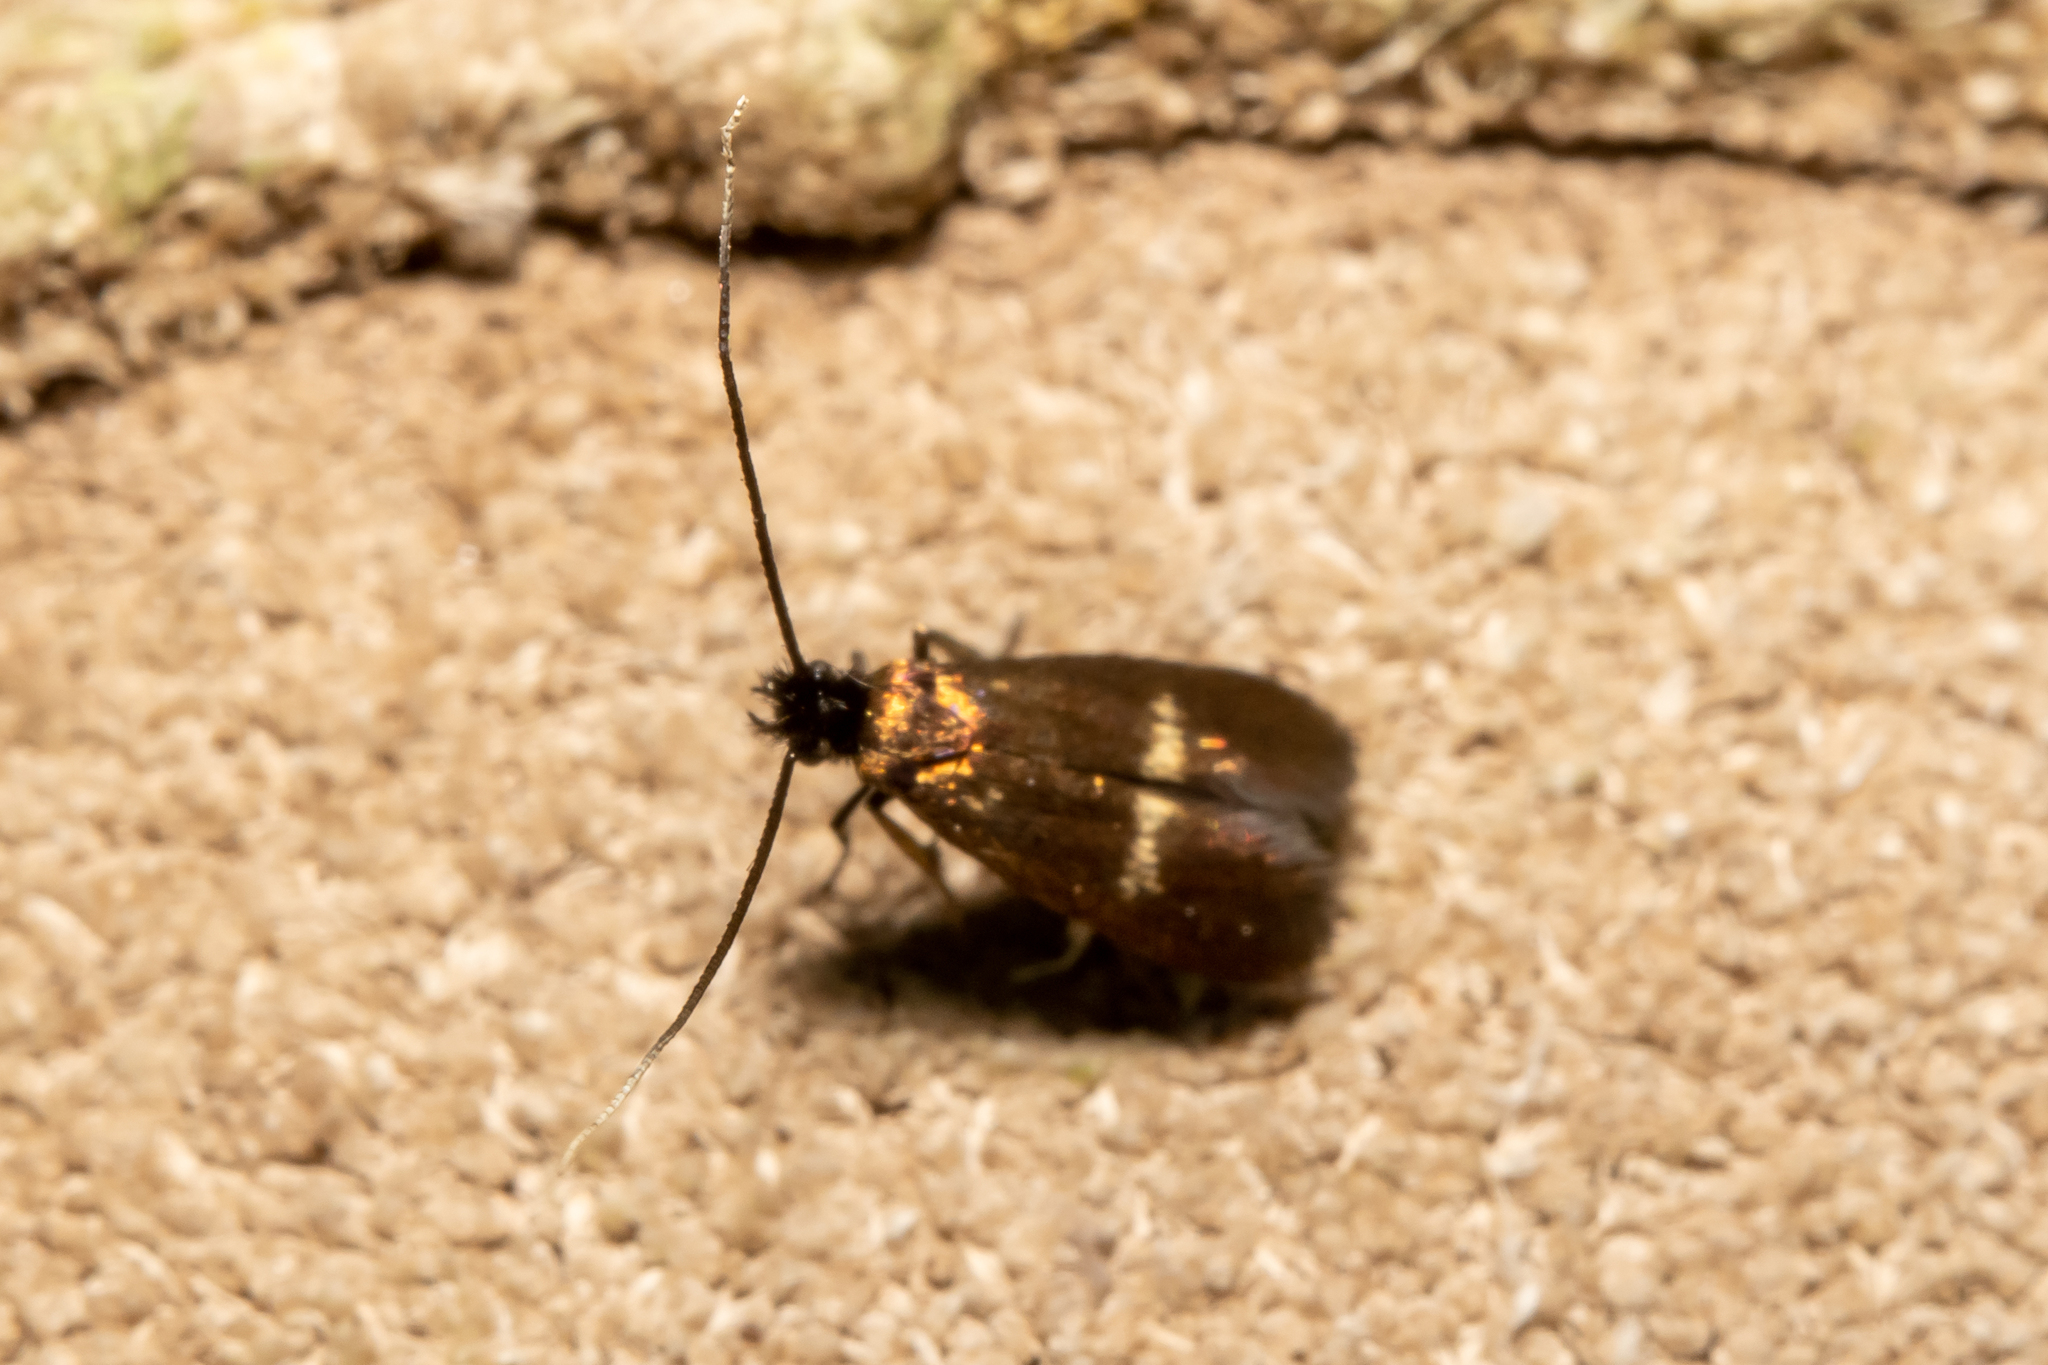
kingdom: Animalia
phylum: Arthropoda
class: Insecta
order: Lepidoptera
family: Adelidae
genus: Cauchas
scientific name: Cauchas fibulella
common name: Little long-horn
